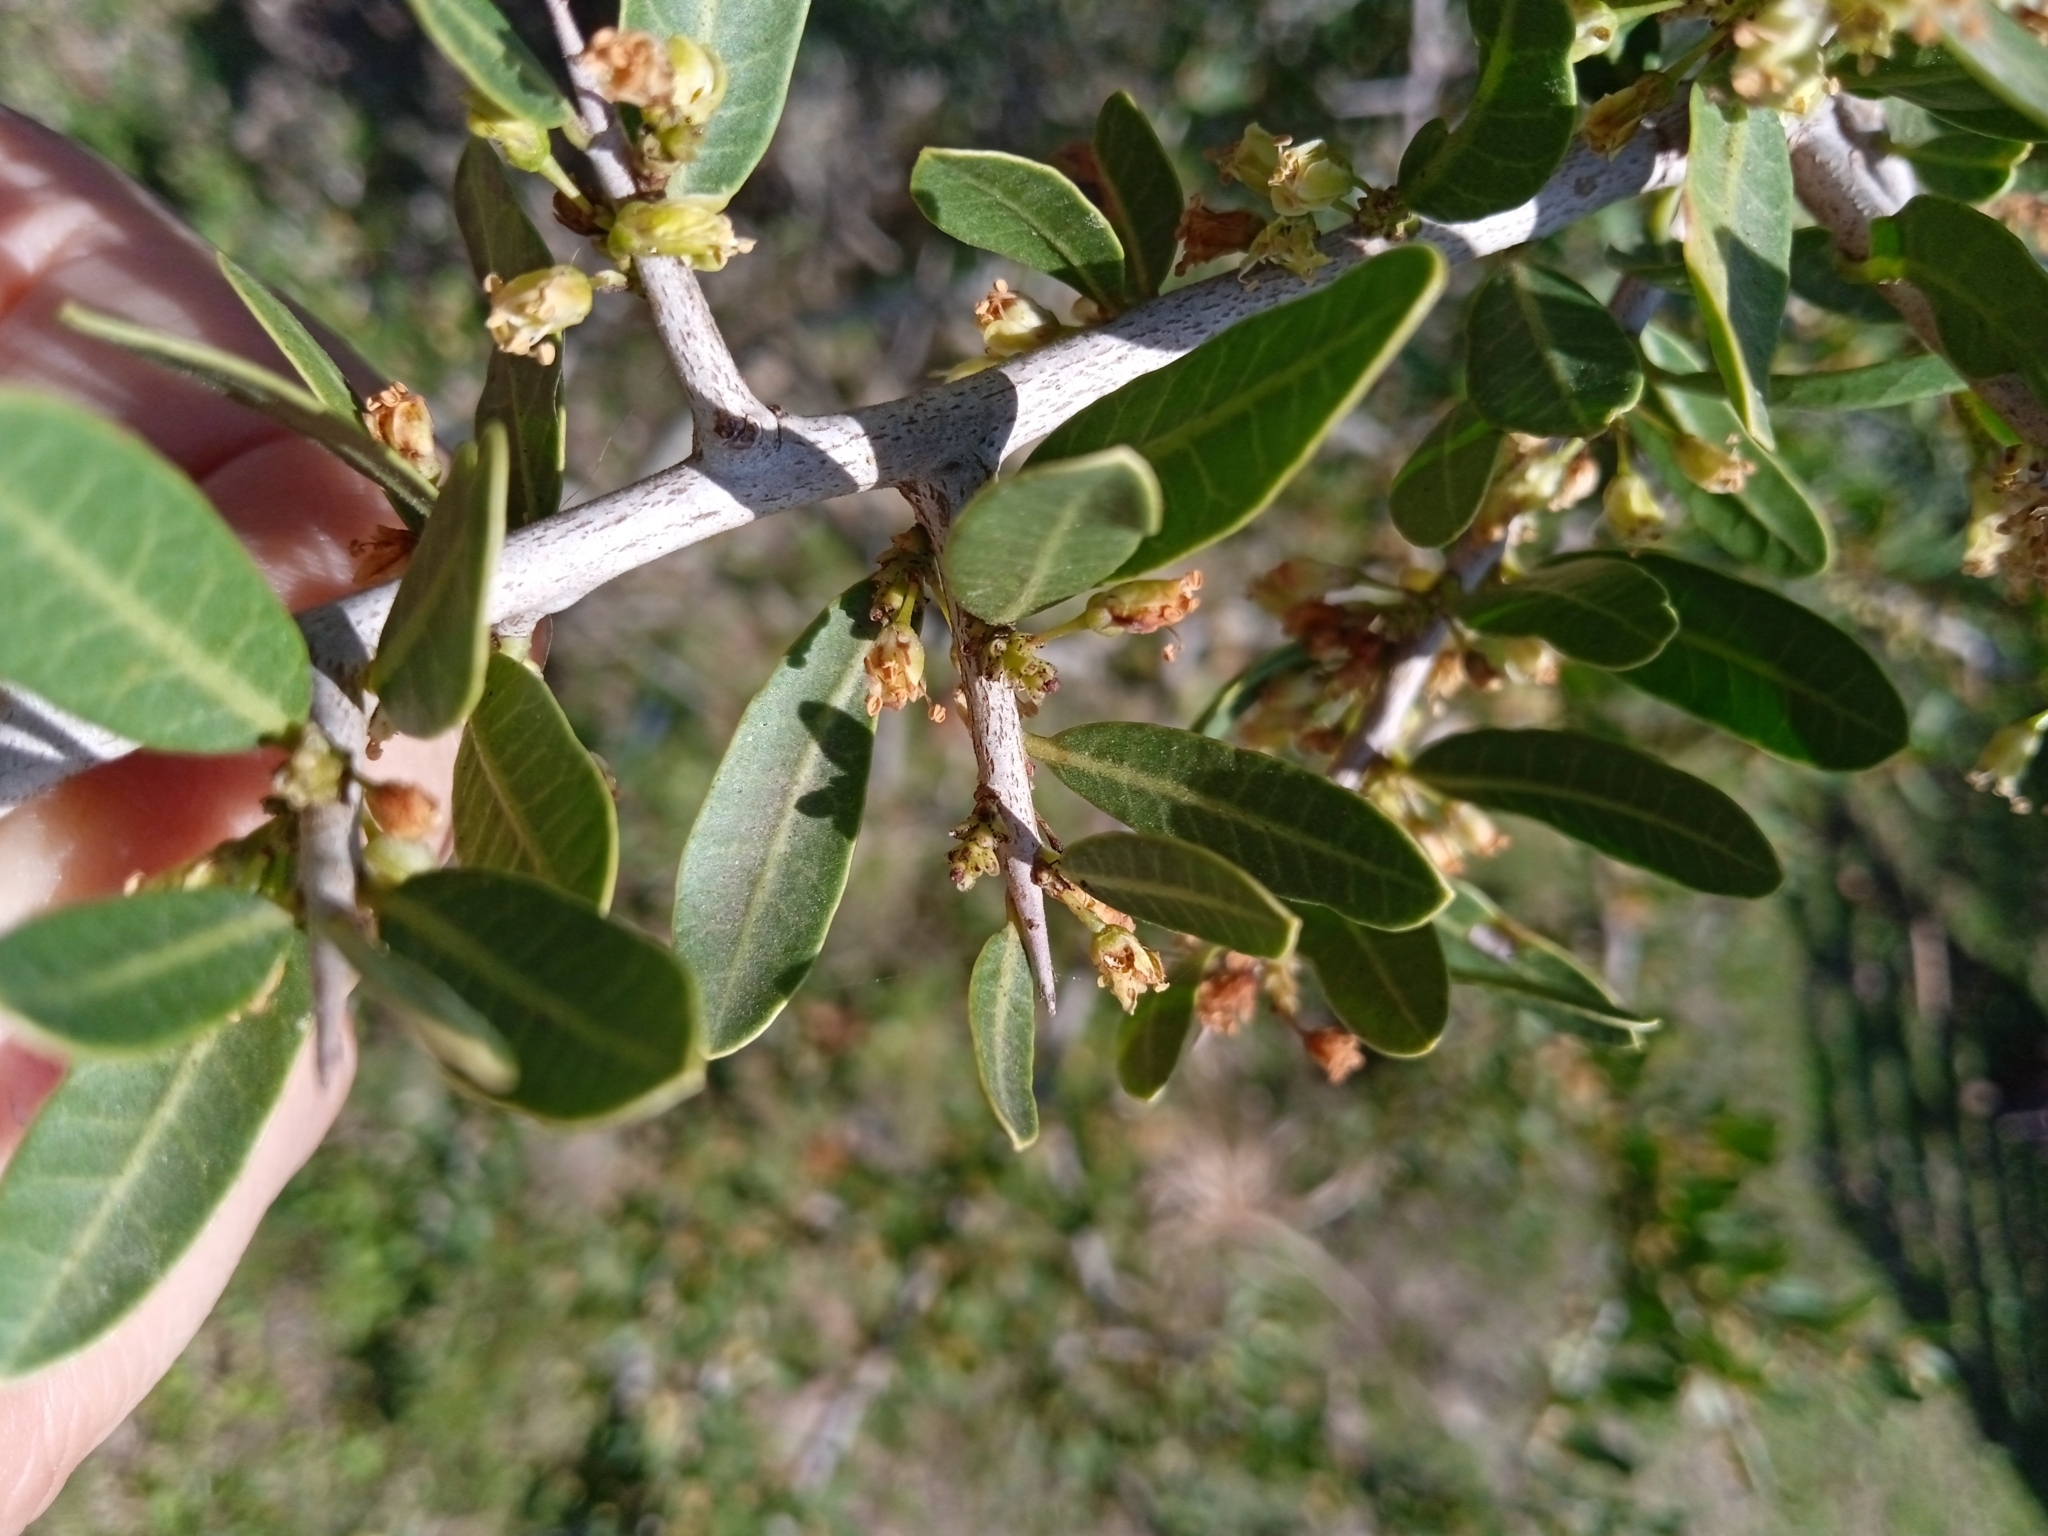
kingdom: Plantae
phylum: Tracheophyta
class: Magnoliopsida
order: Sapindales
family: Anacardiaceae
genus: Schinus
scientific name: Schinus longifolia
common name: Longleaf peppertree
